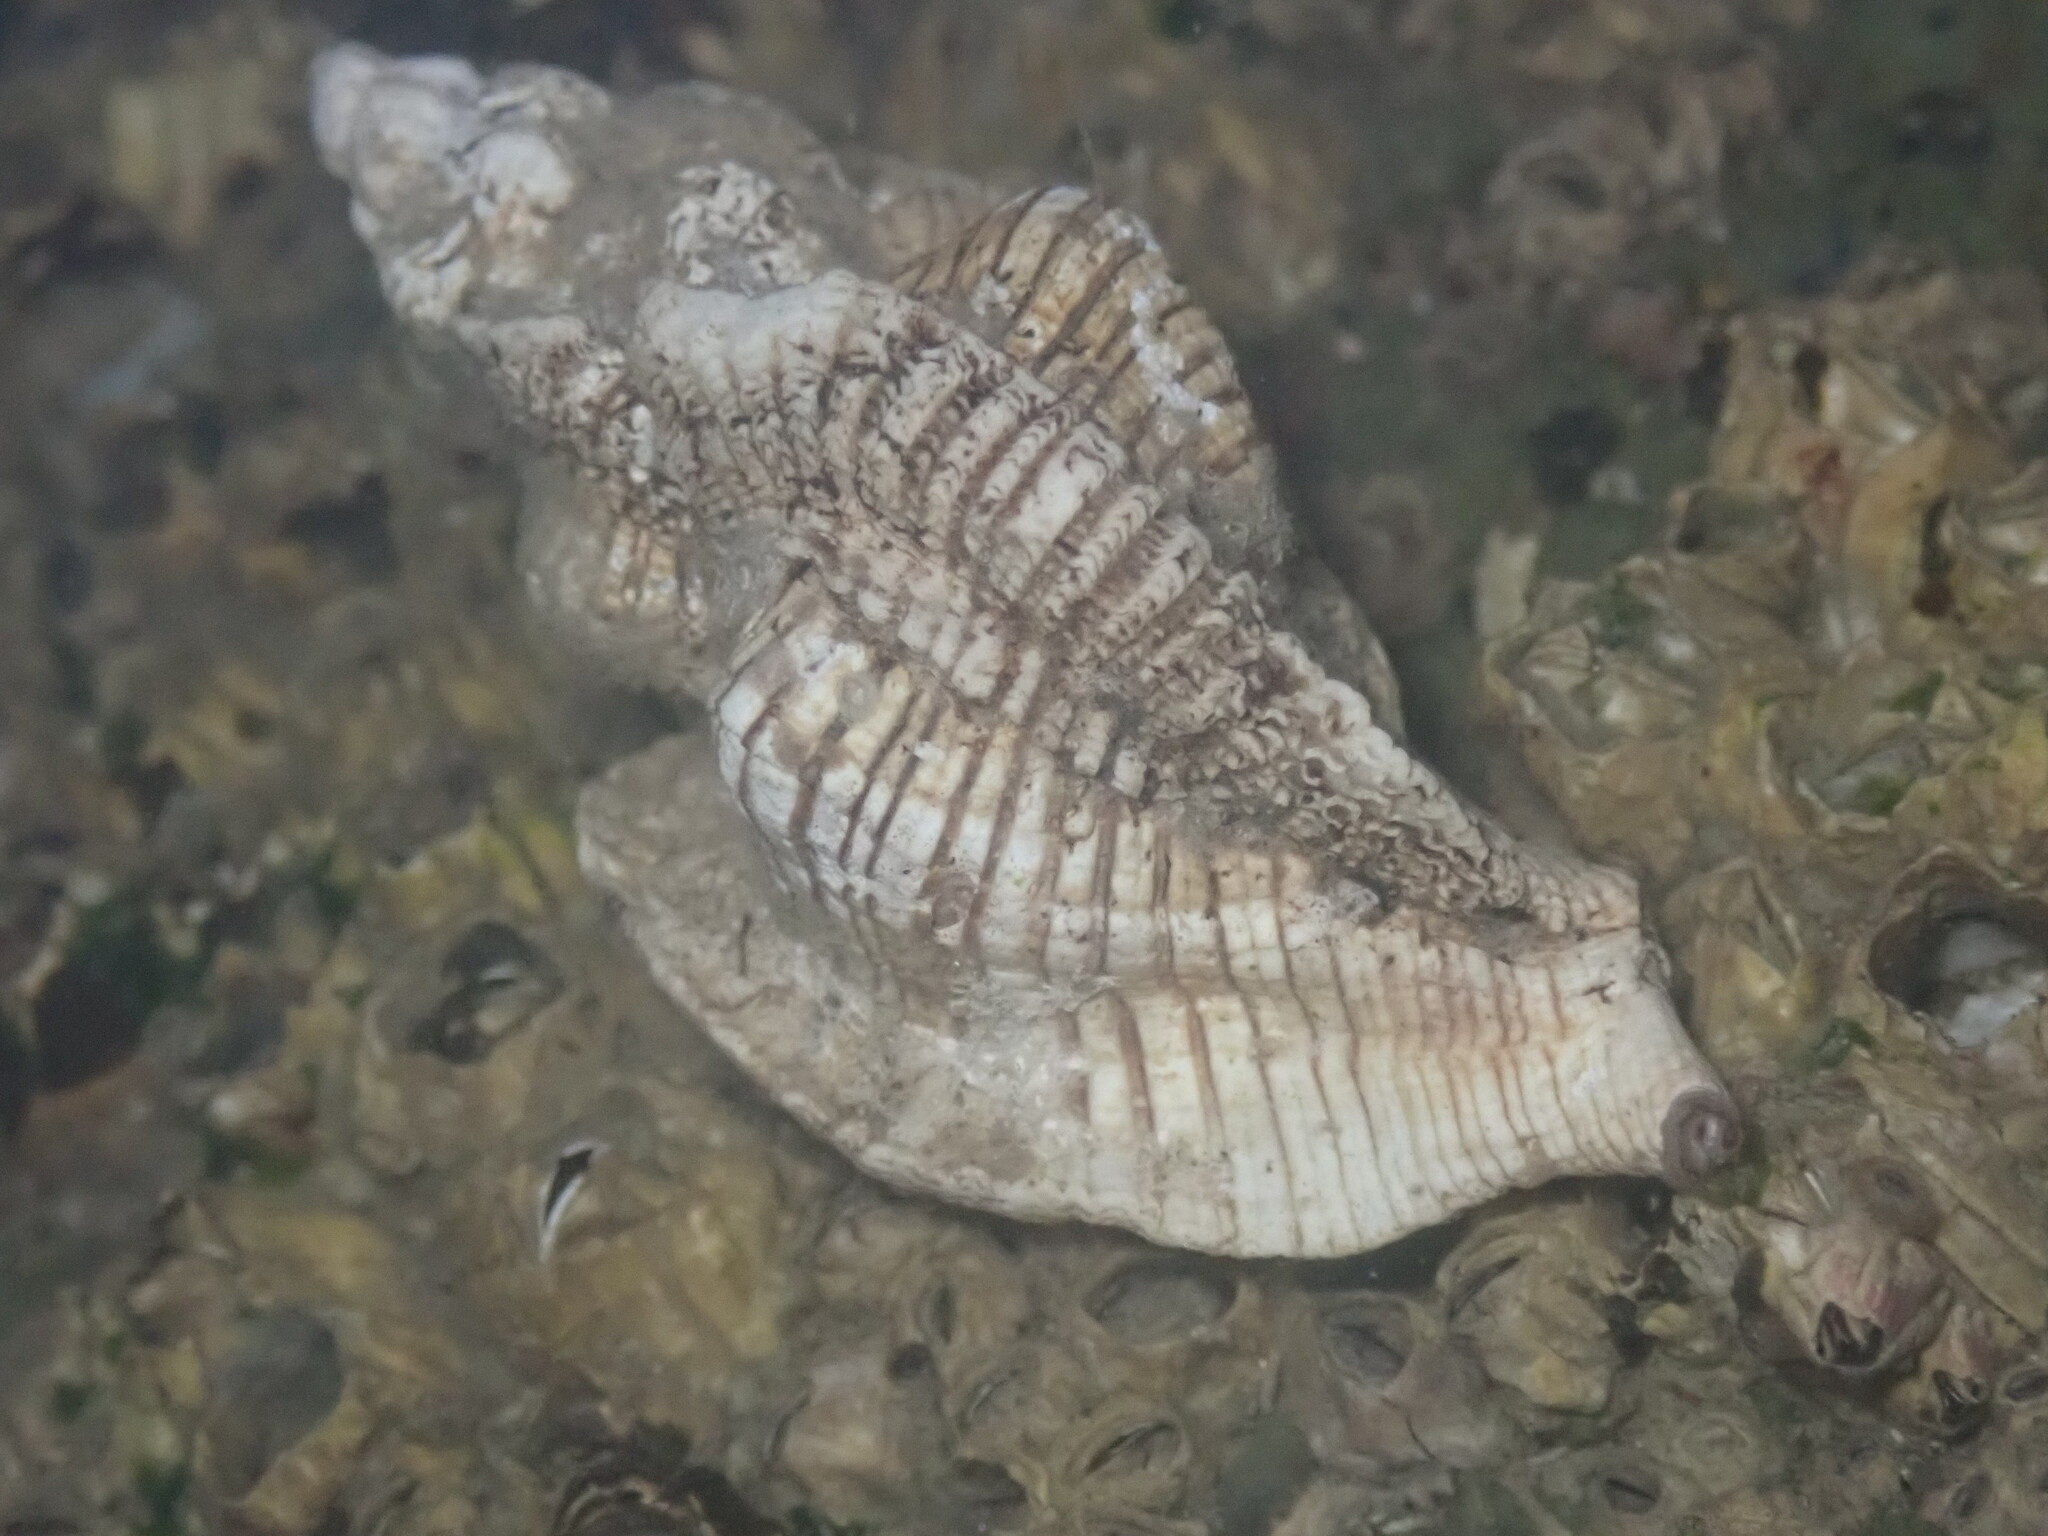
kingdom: Animalia
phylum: Mollusca
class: Gastropoda
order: Neogastropoda
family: Muricidae
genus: Pteropurpura
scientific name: Pteropurpura festiva
